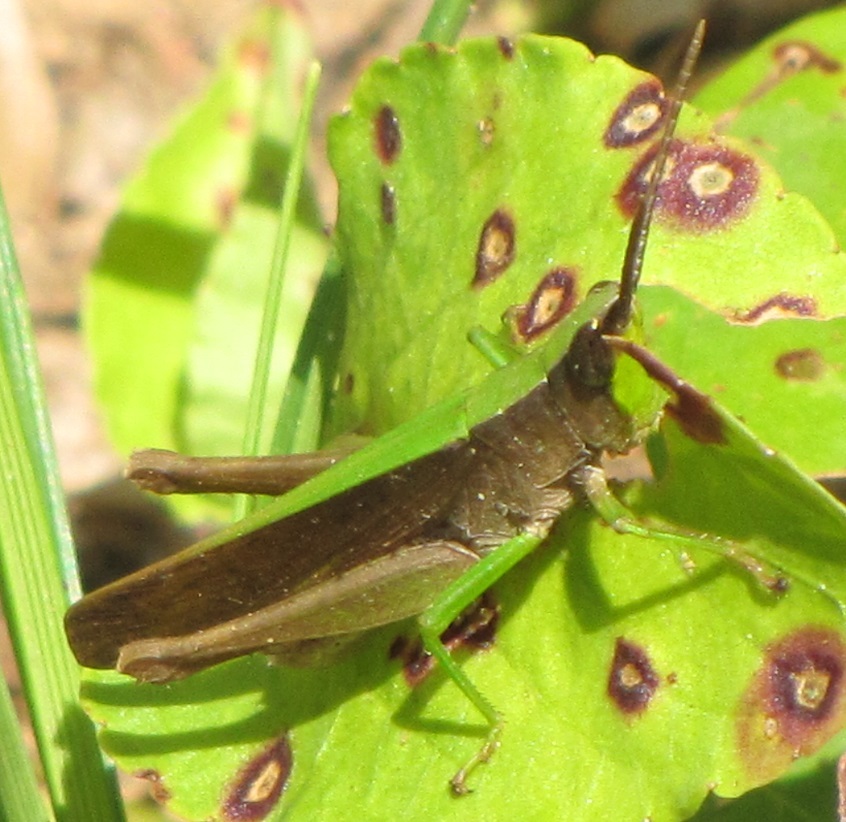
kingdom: Animalia
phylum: Arthropoda
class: Insecta
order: Orthoptera
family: Acrididae
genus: Metaleptea
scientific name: Metaleptea brevicornis
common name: Clipped-wing grasshopper
